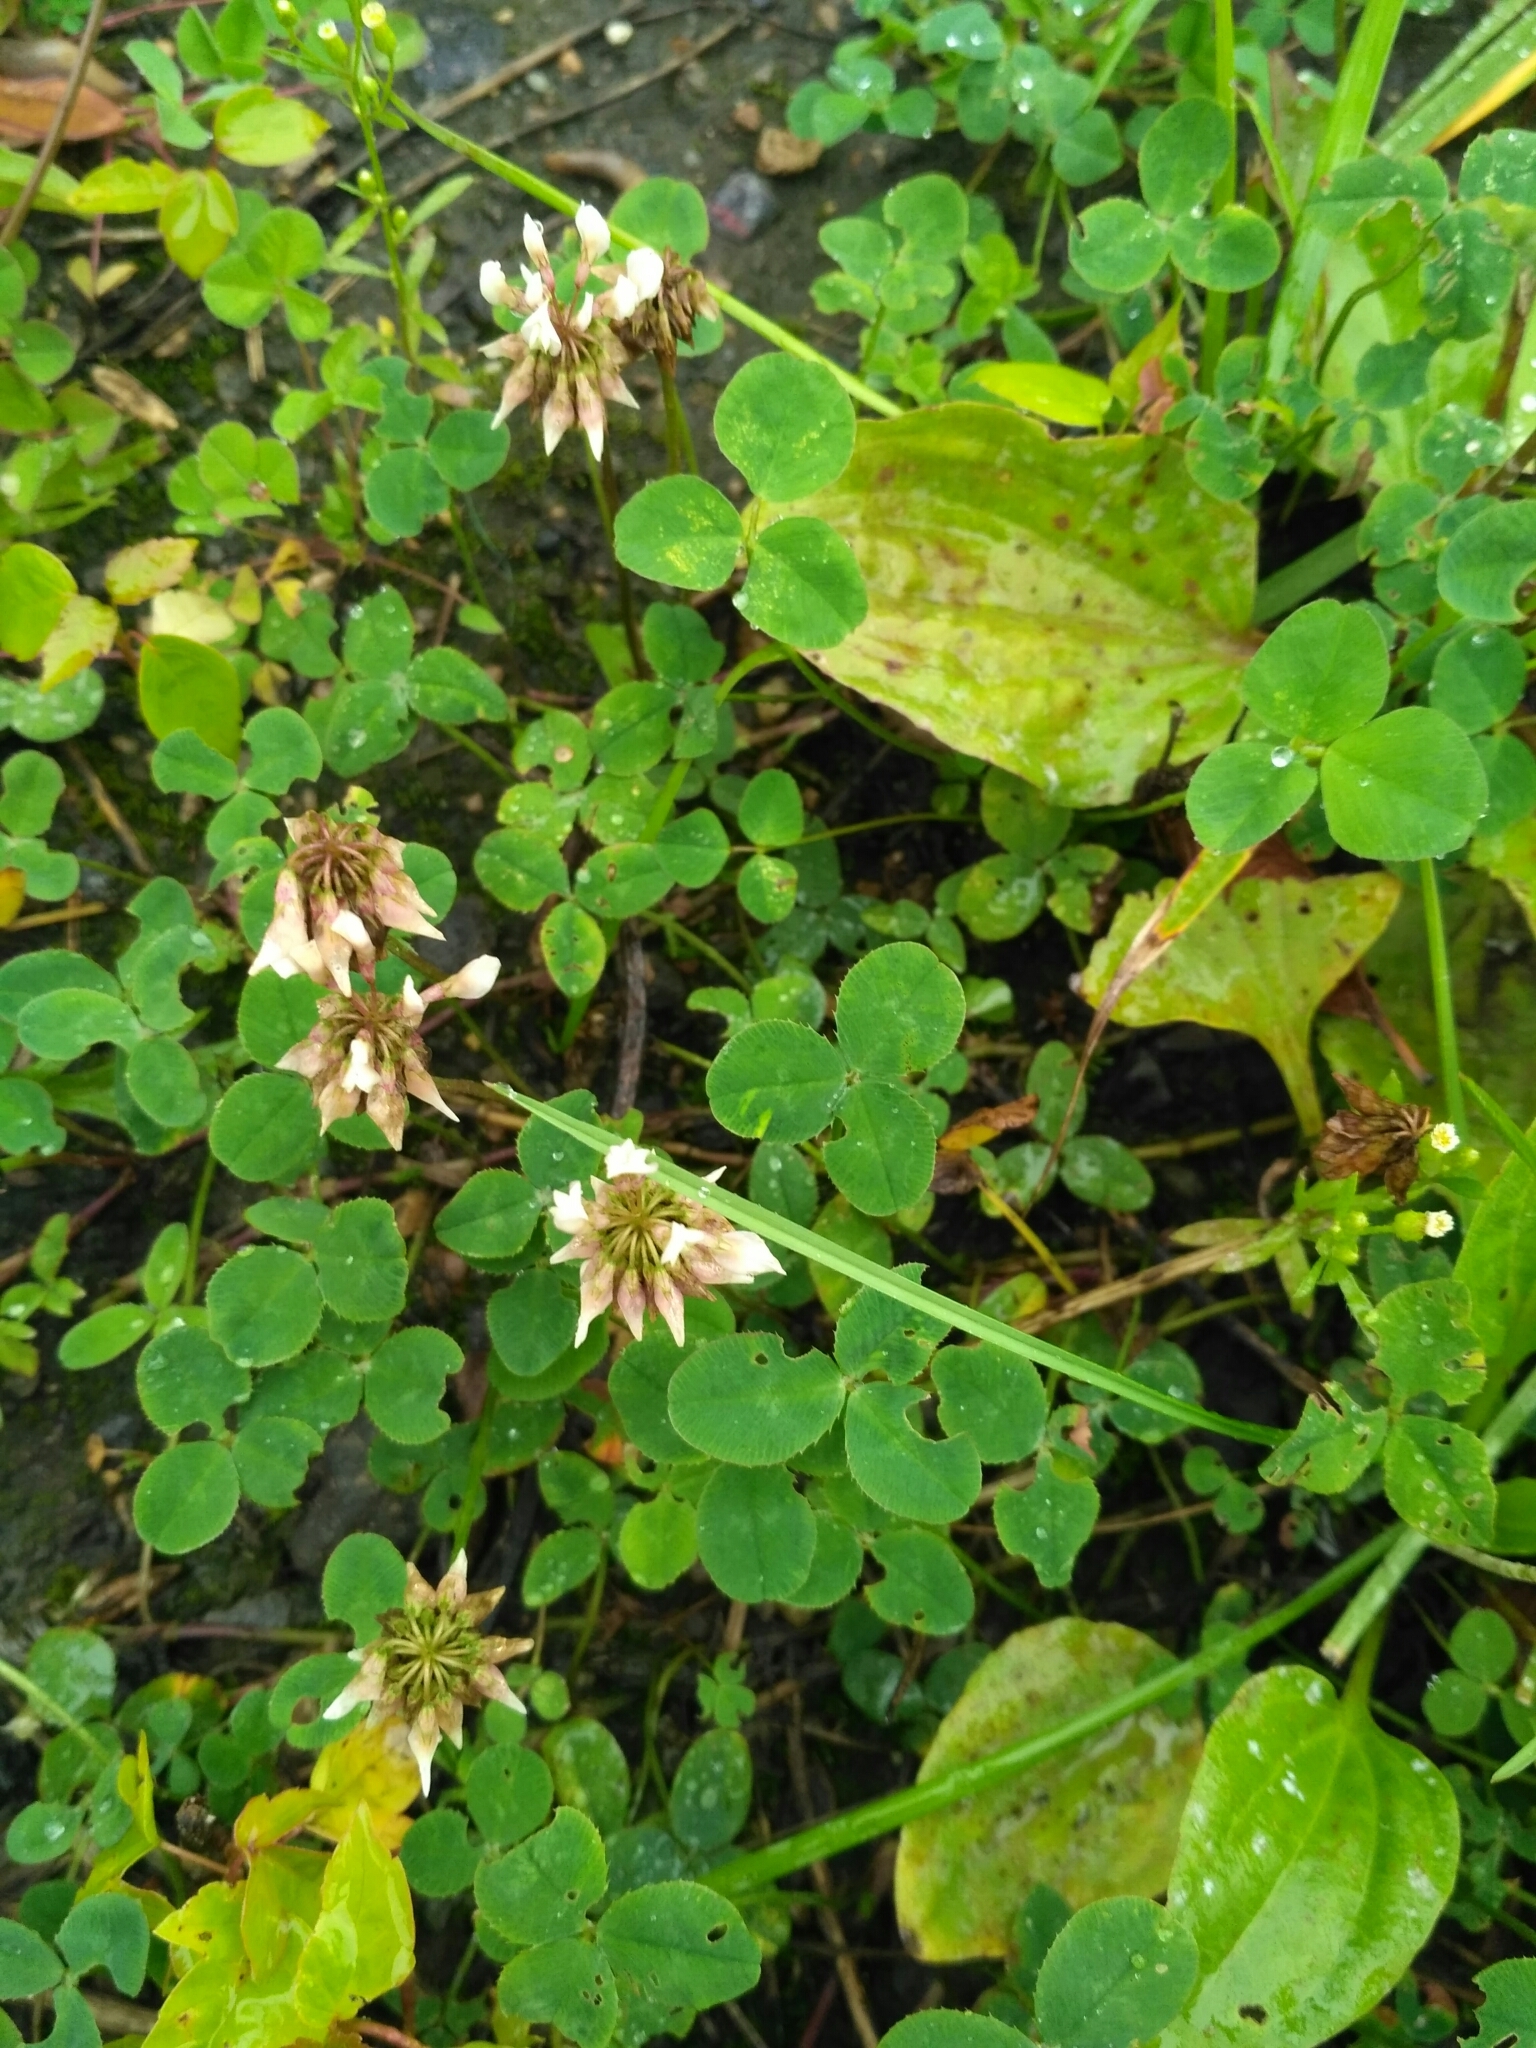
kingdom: Plantae
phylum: Tracheophyta
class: Magnoliopsida
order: Fabales
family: Fabaceae
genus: Trifolium
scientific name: Trifolium repens
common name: White clover
